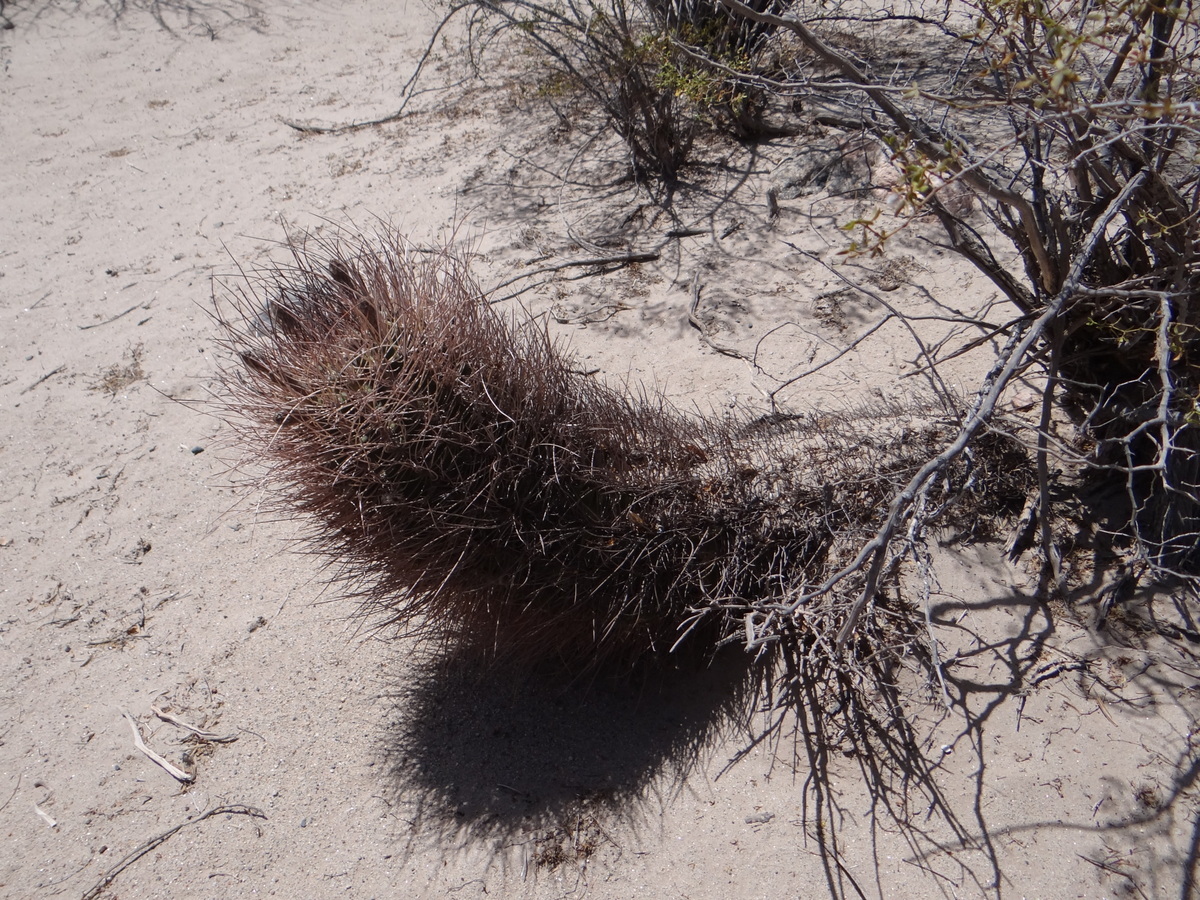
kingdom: Plantae
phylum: Tracheophyta
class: Magnoliopsida
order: Caryophyllales
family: Cactaceae
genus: Acanthocalycium
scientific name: Acanthocalycium leucanthum
